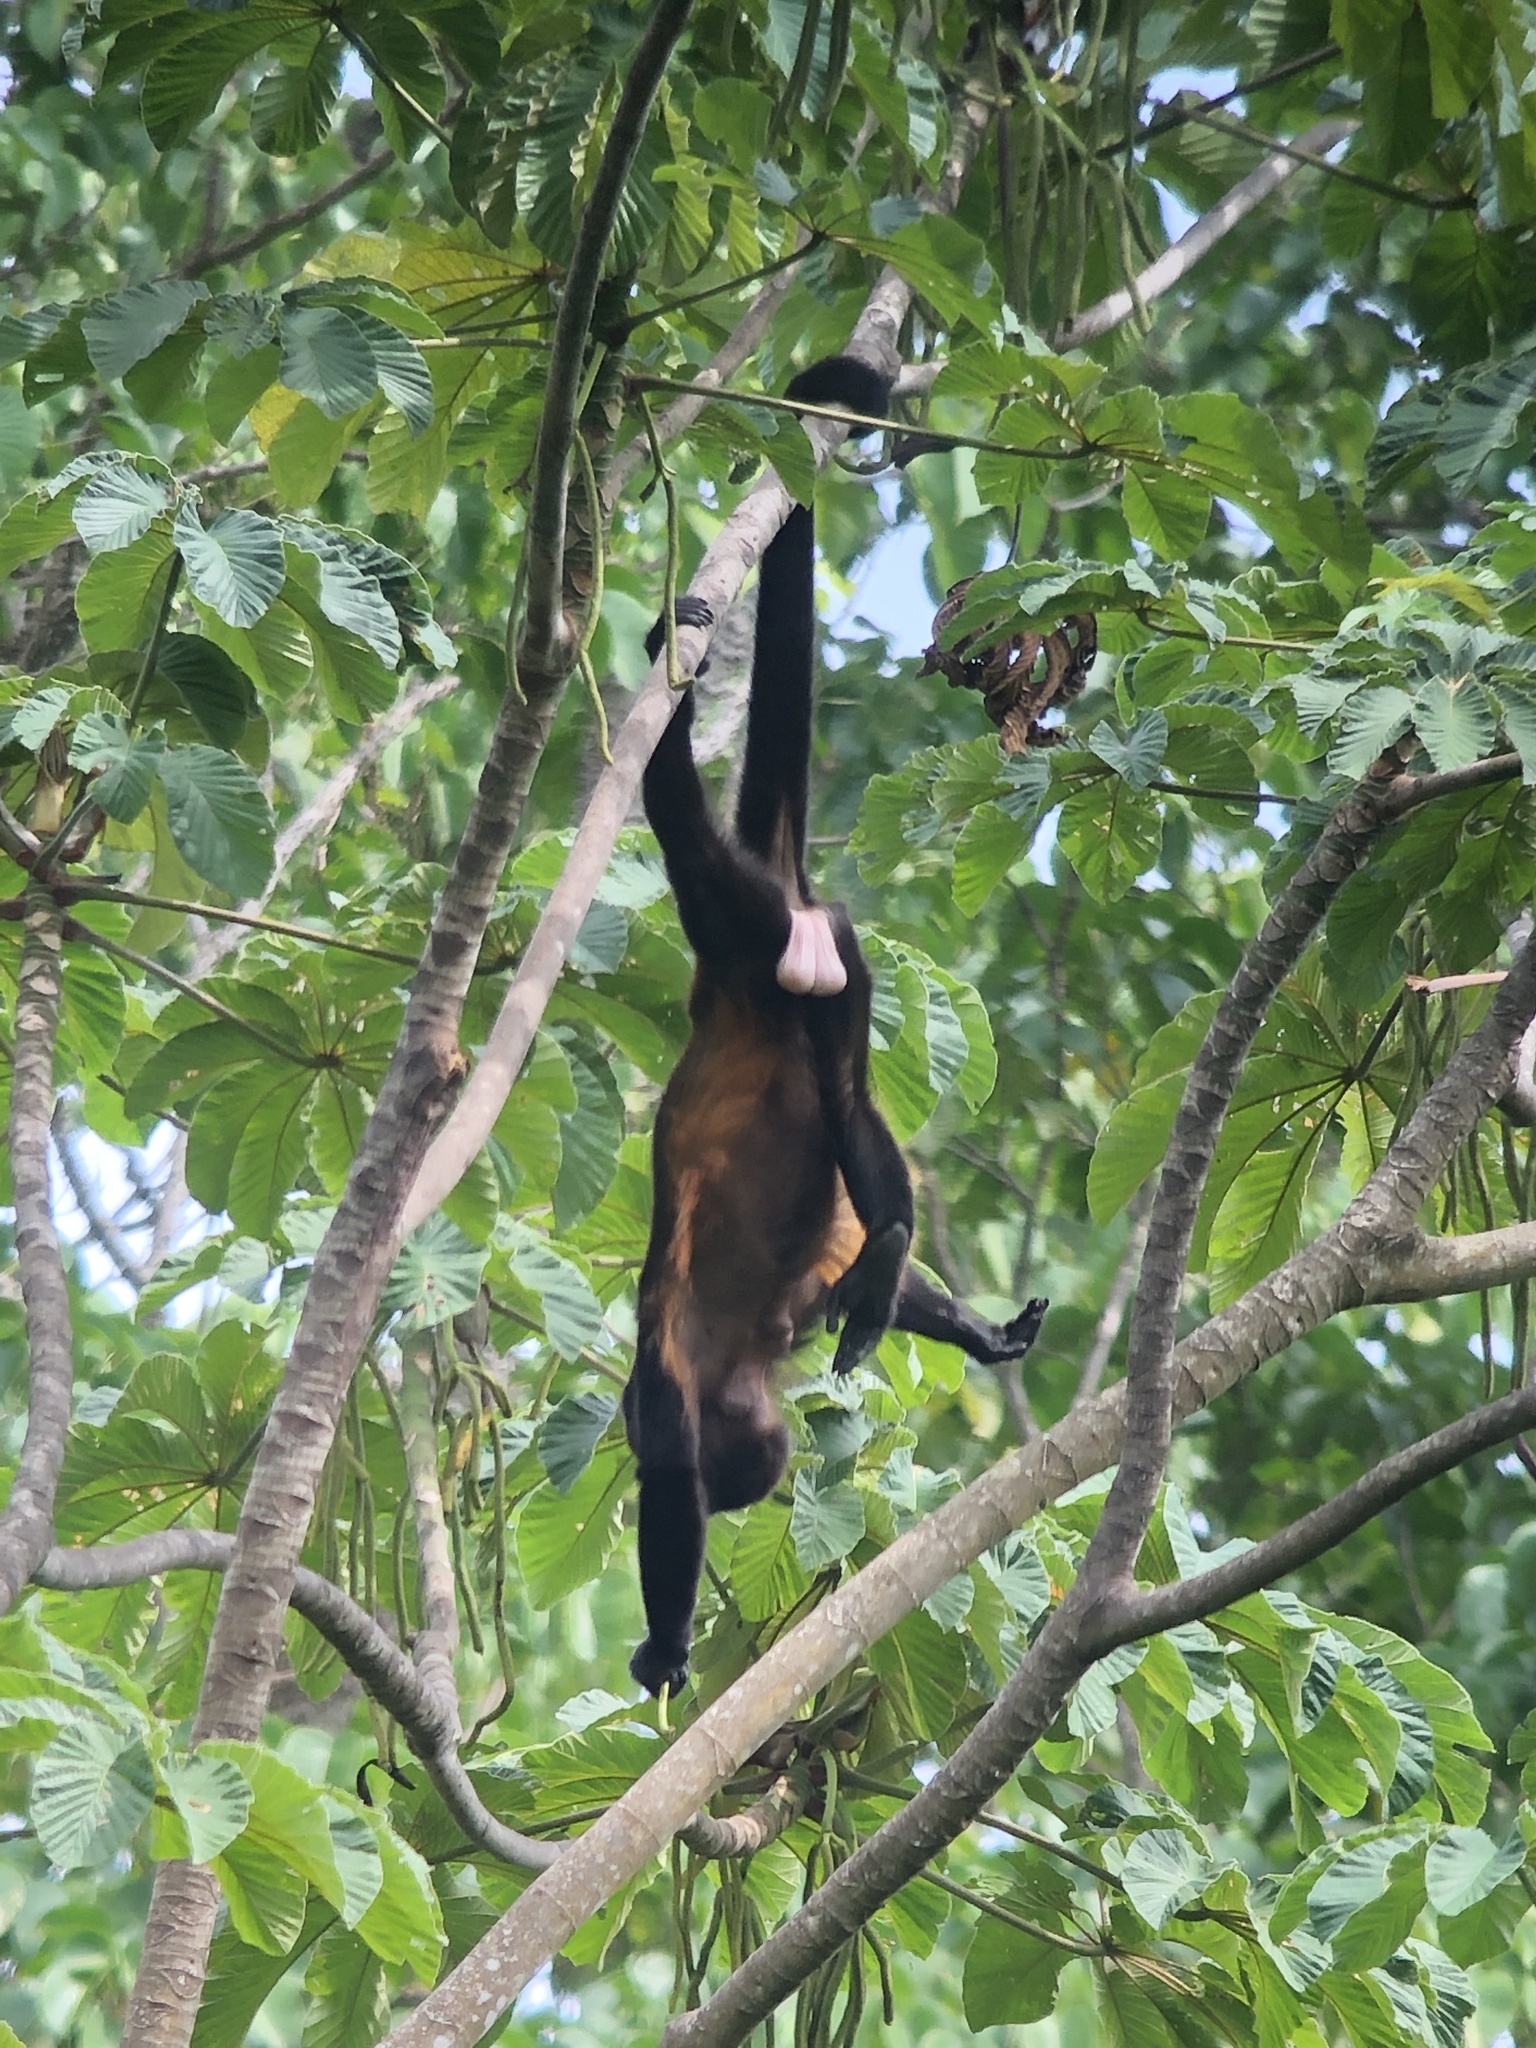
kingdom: Animalia
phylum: Chordata
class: Mammalia
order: Primates
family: Atelidae
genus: Alouatta
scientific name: Alouatta palliata
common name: Mantled howler
